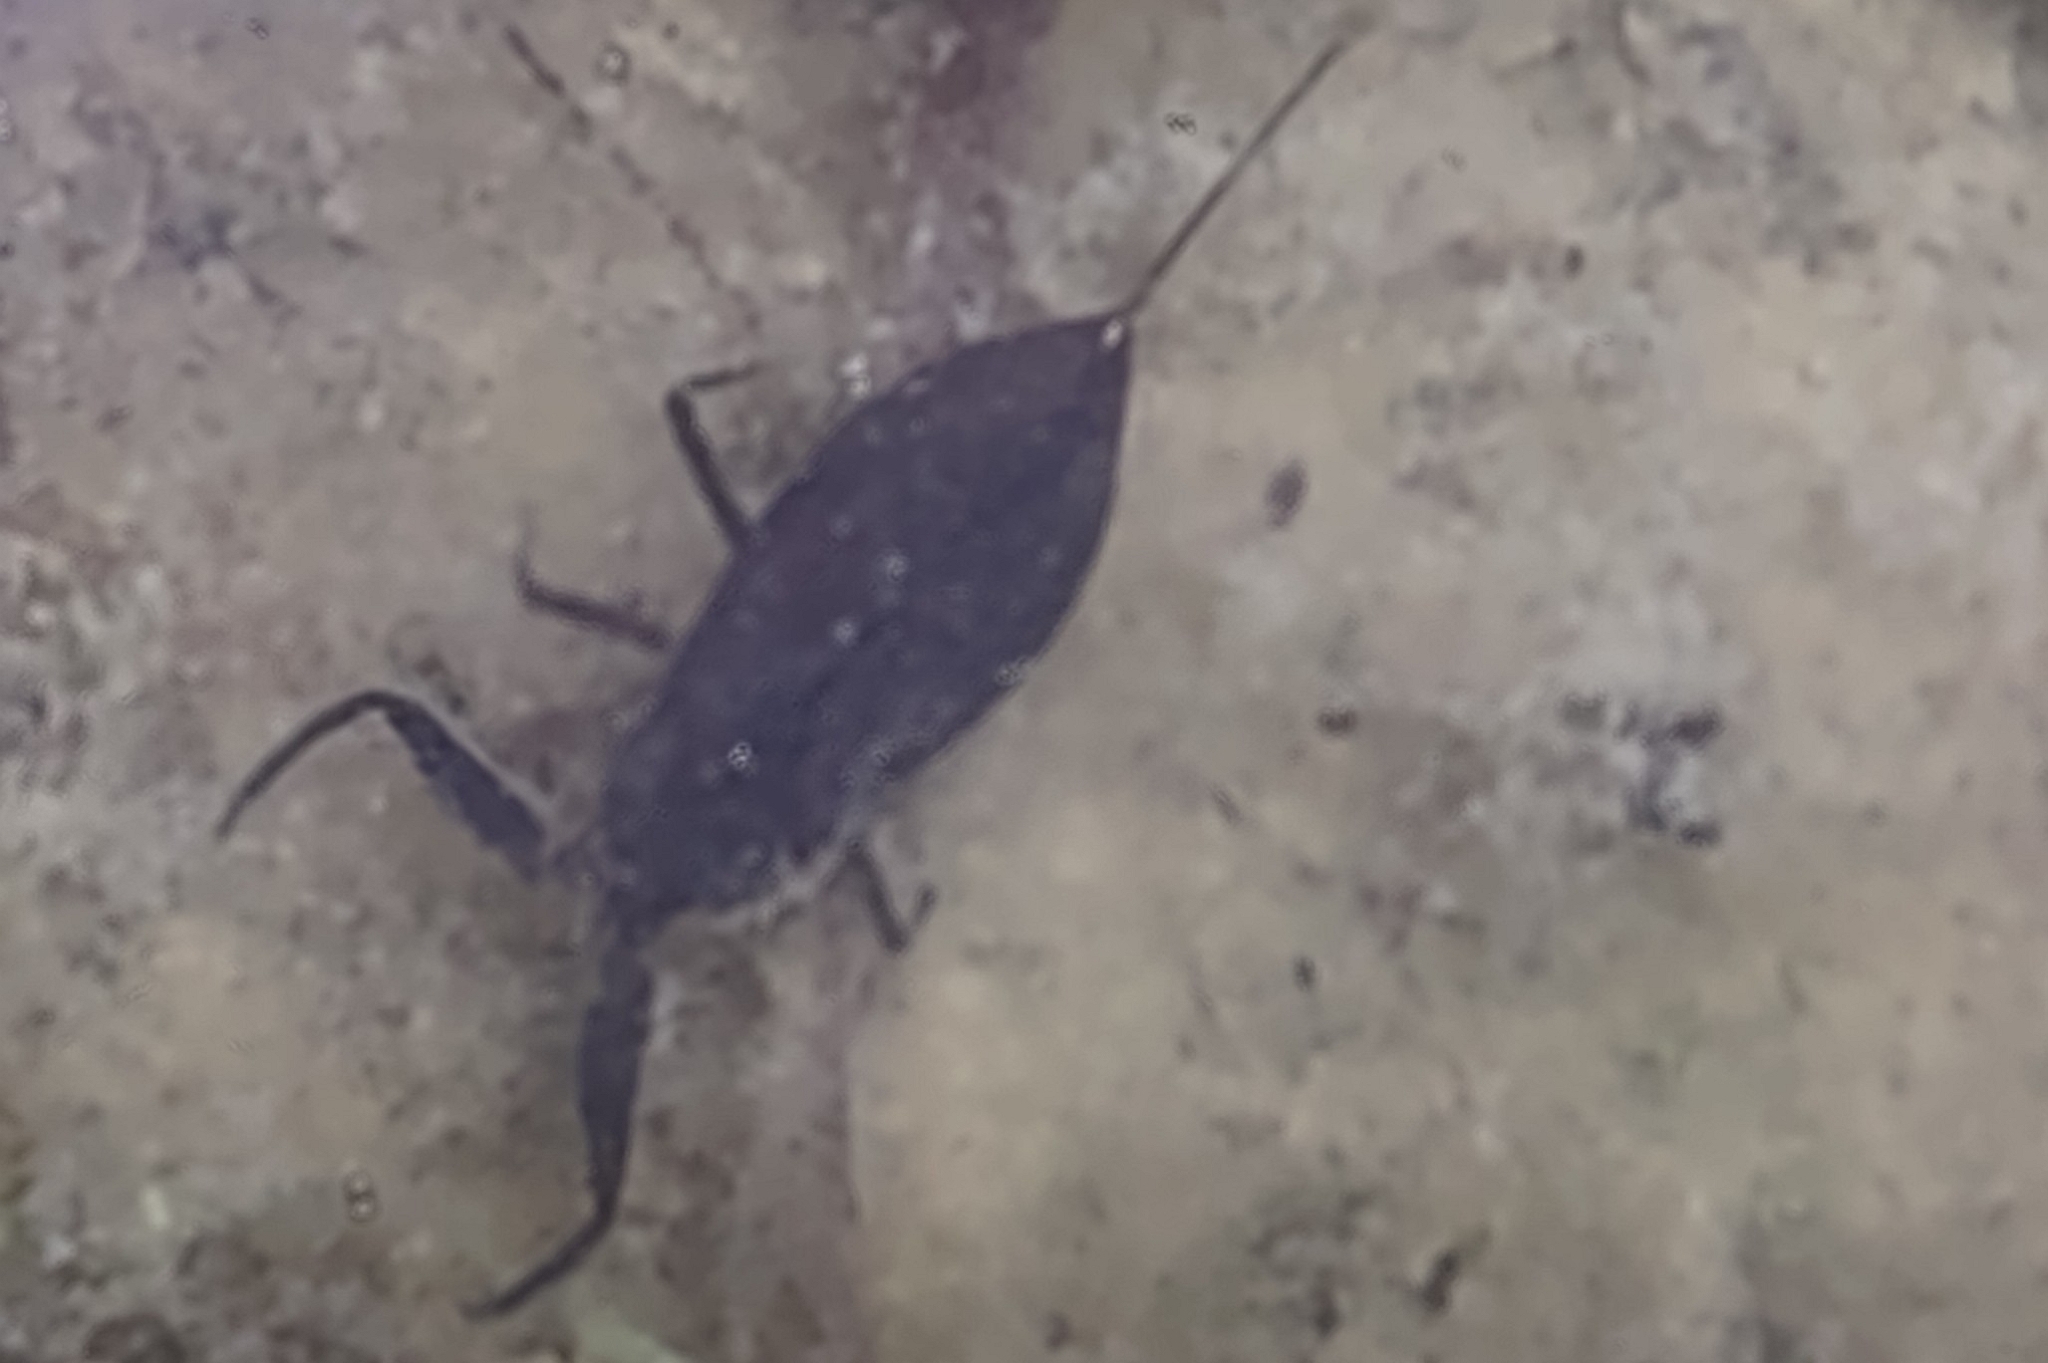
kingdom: Animalia
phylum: Arthropoda
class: Insecta
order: Hemiptera
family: Nepidae
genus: Nepa
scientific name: Nepa cinerea
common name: Water scorpion
